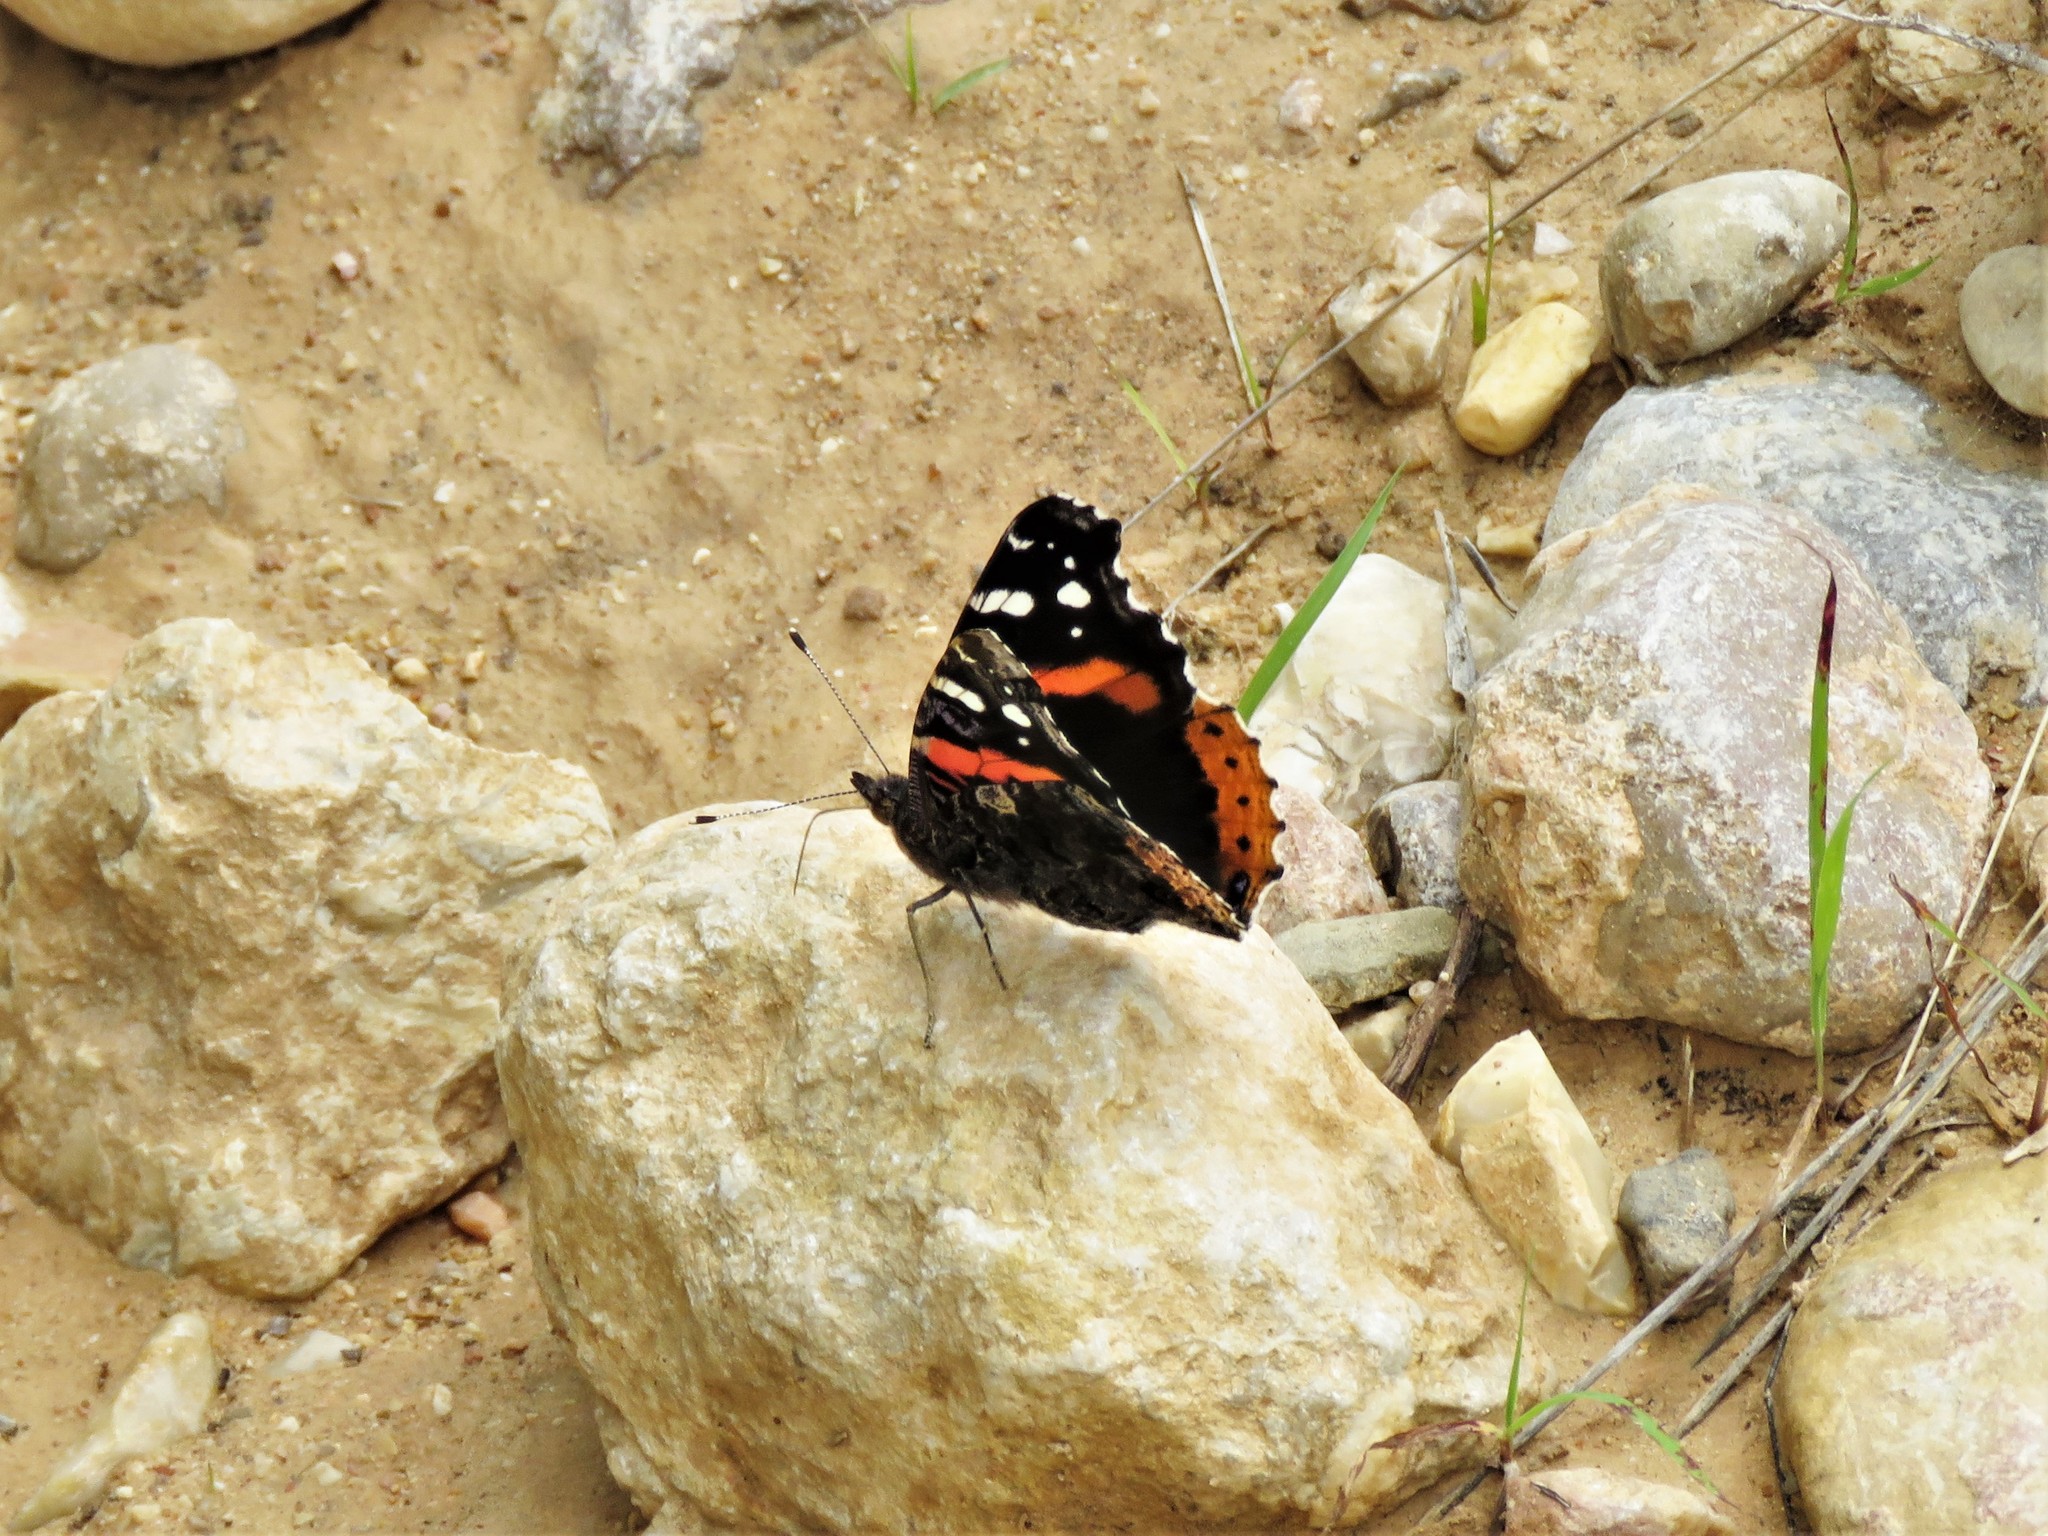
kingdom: Animalia
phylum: Arthropoda
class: Insecta
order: Lepidoptera
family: Nymphalidae
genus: Vanessa
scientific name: Vanessa atalanta
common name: Red admiral
